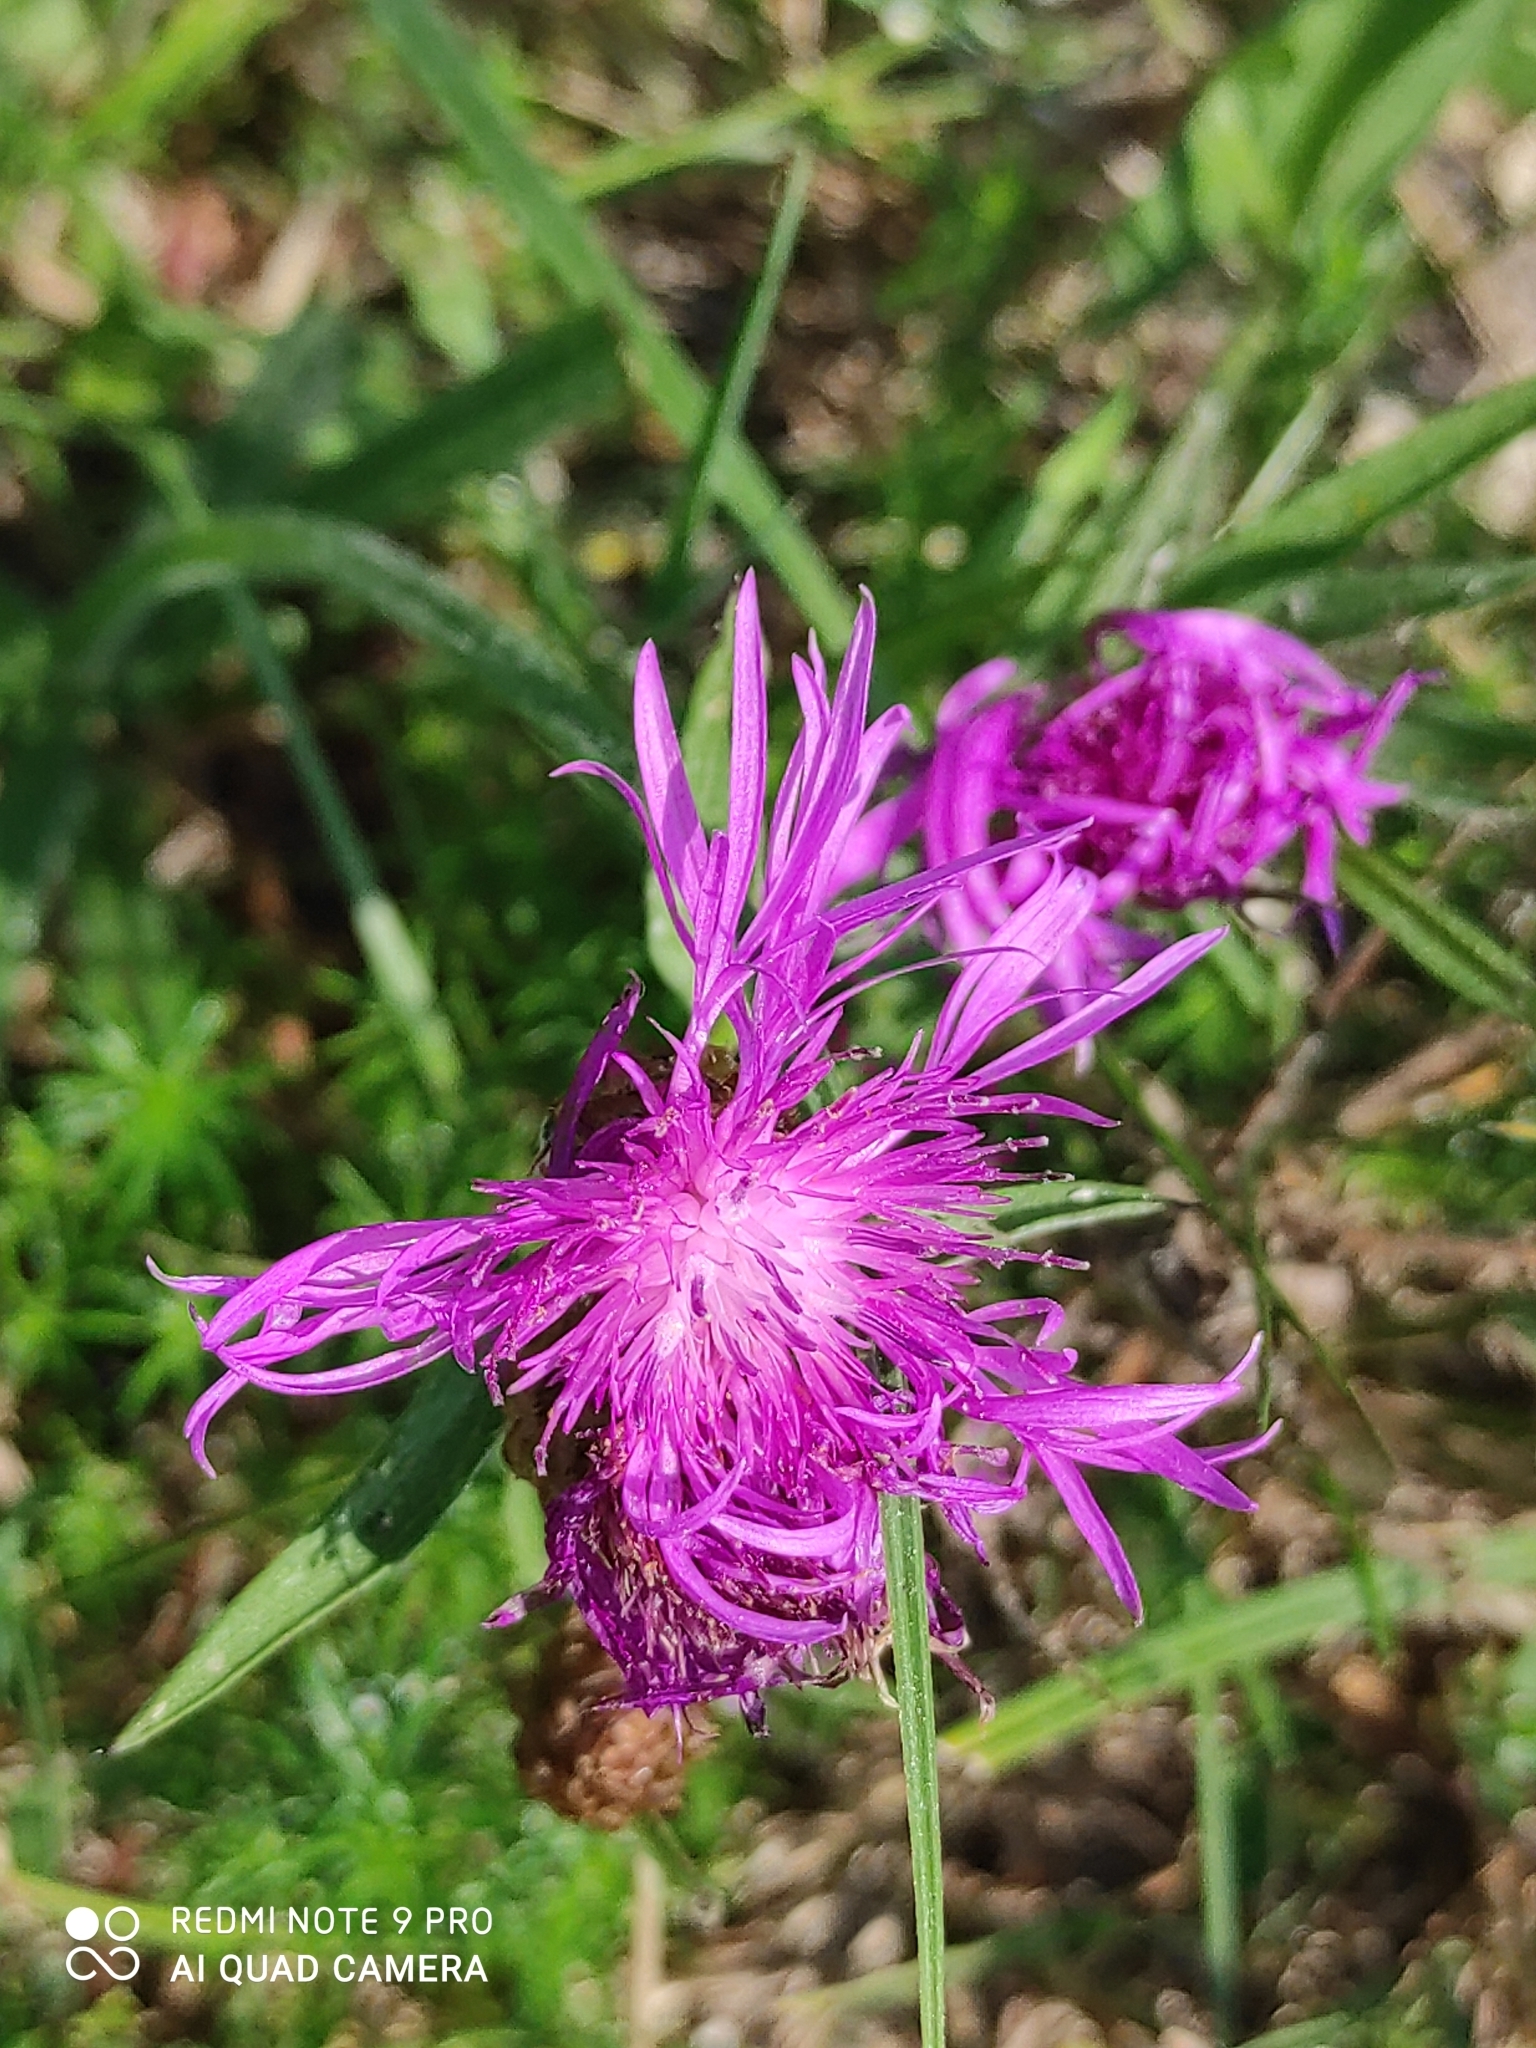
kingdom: Plantae
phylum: Tracheophyta
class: Magnoliopsida
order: Asterales
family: Asteraceae
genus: Centaurea
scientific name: Centaurea jacea
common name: Brown knapweed
